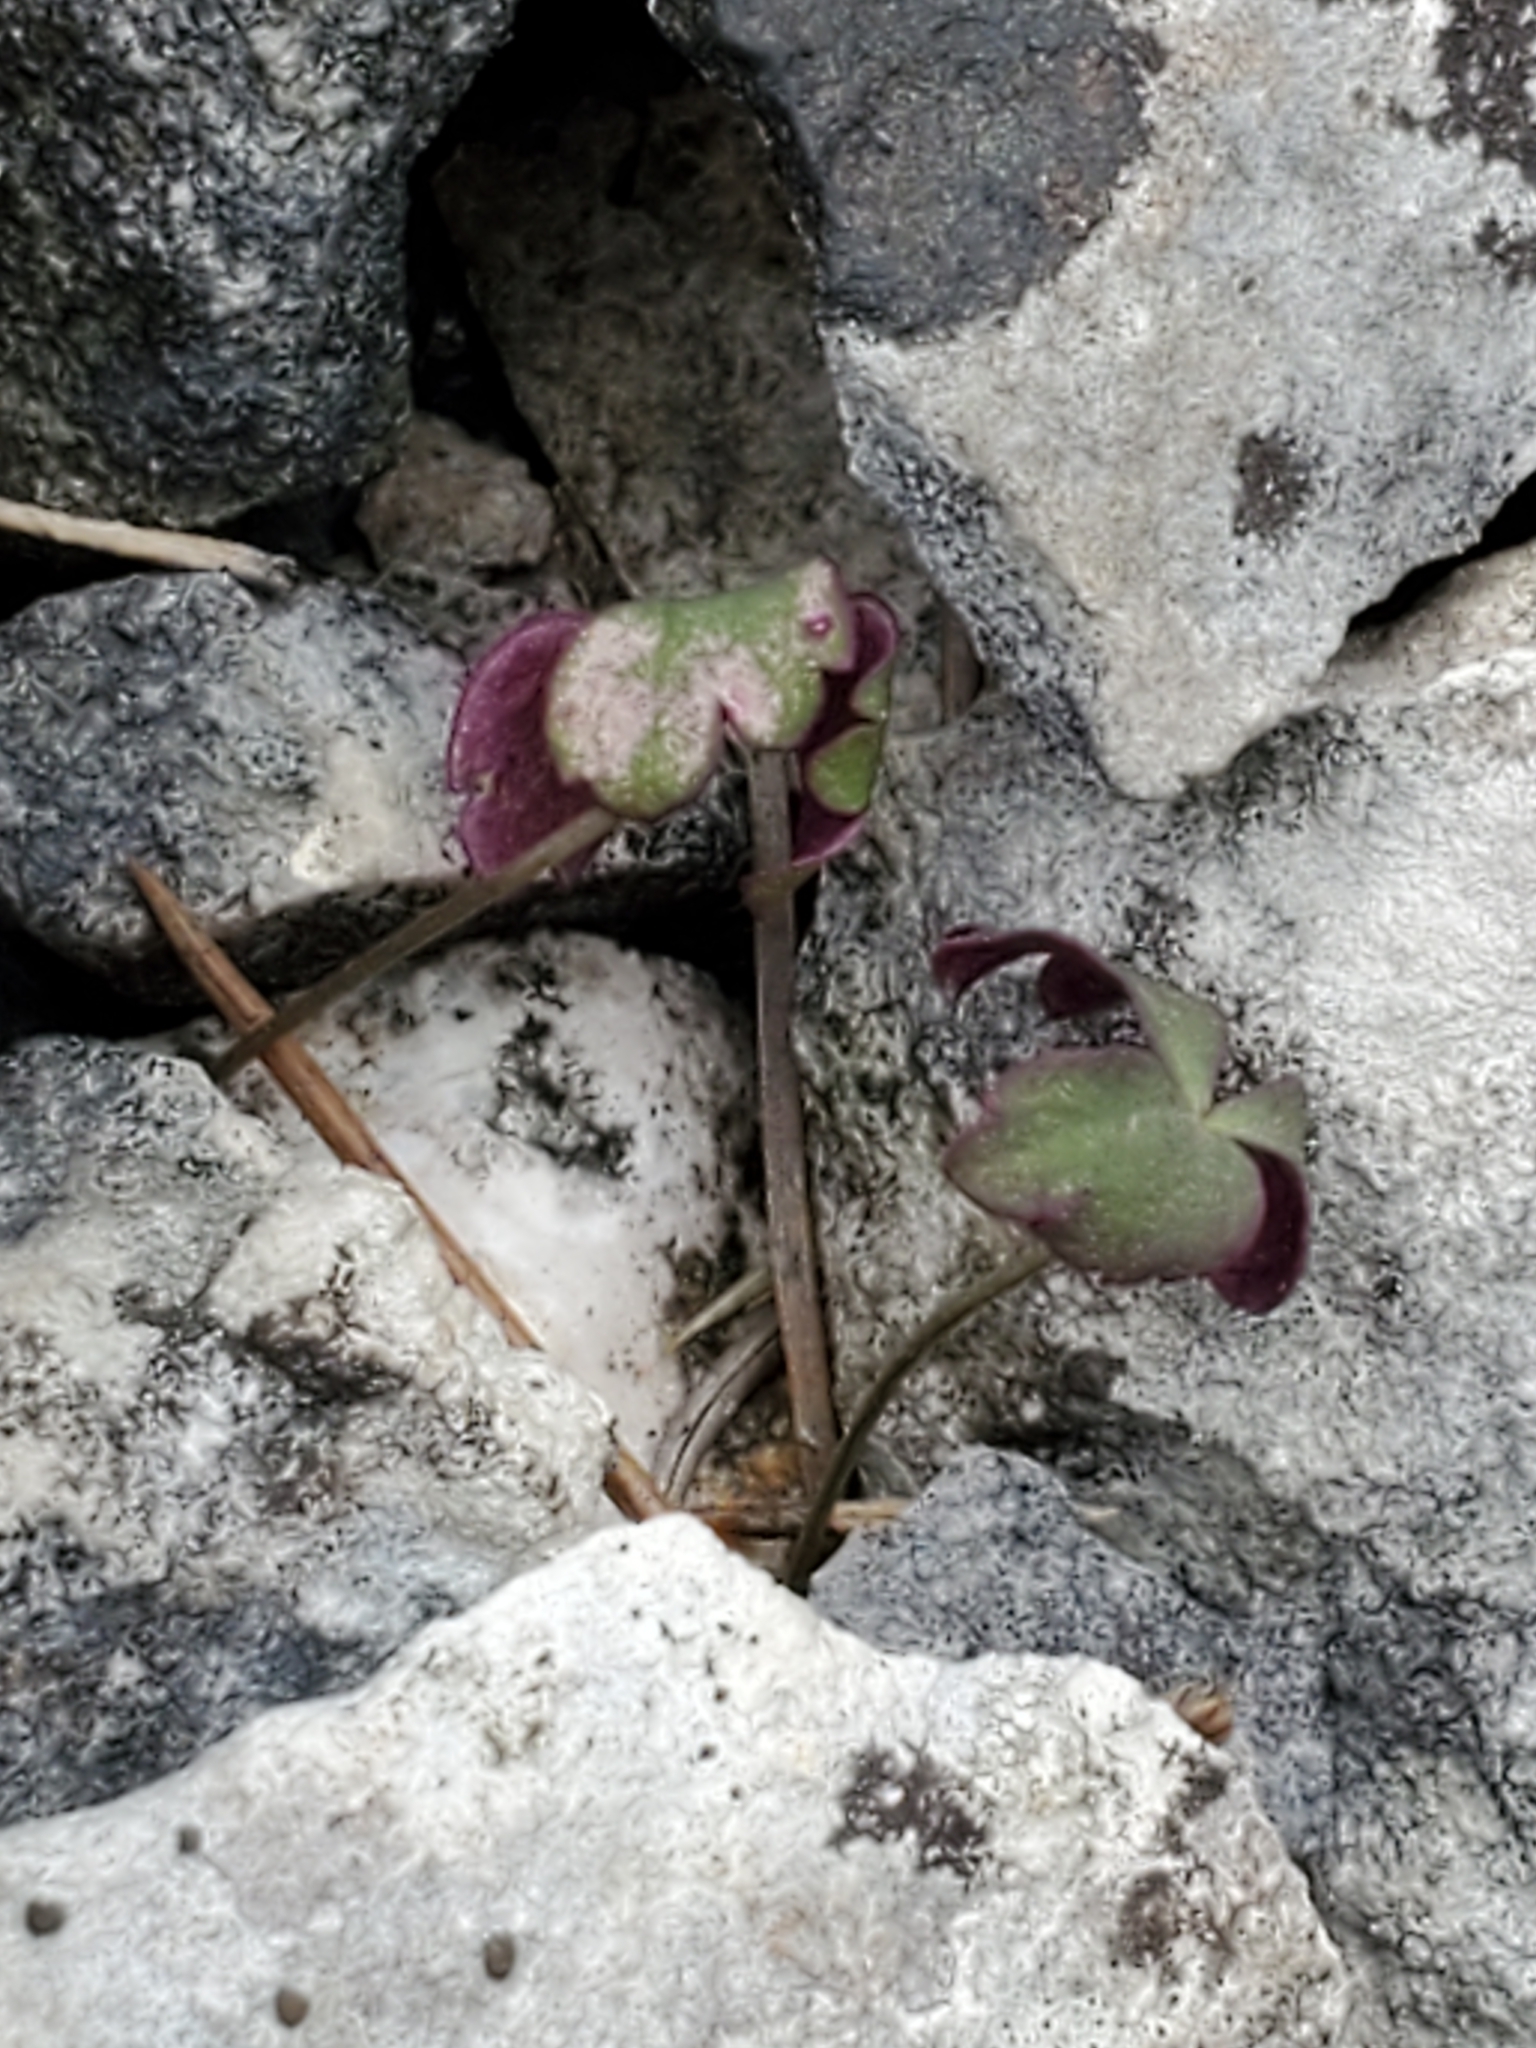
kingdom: Plantae
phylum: Tracheophyta
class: Magnoliopsida
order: Ranunculales
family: Ranunculaceae
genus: Anemone
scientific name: Anemone edwardsiana
